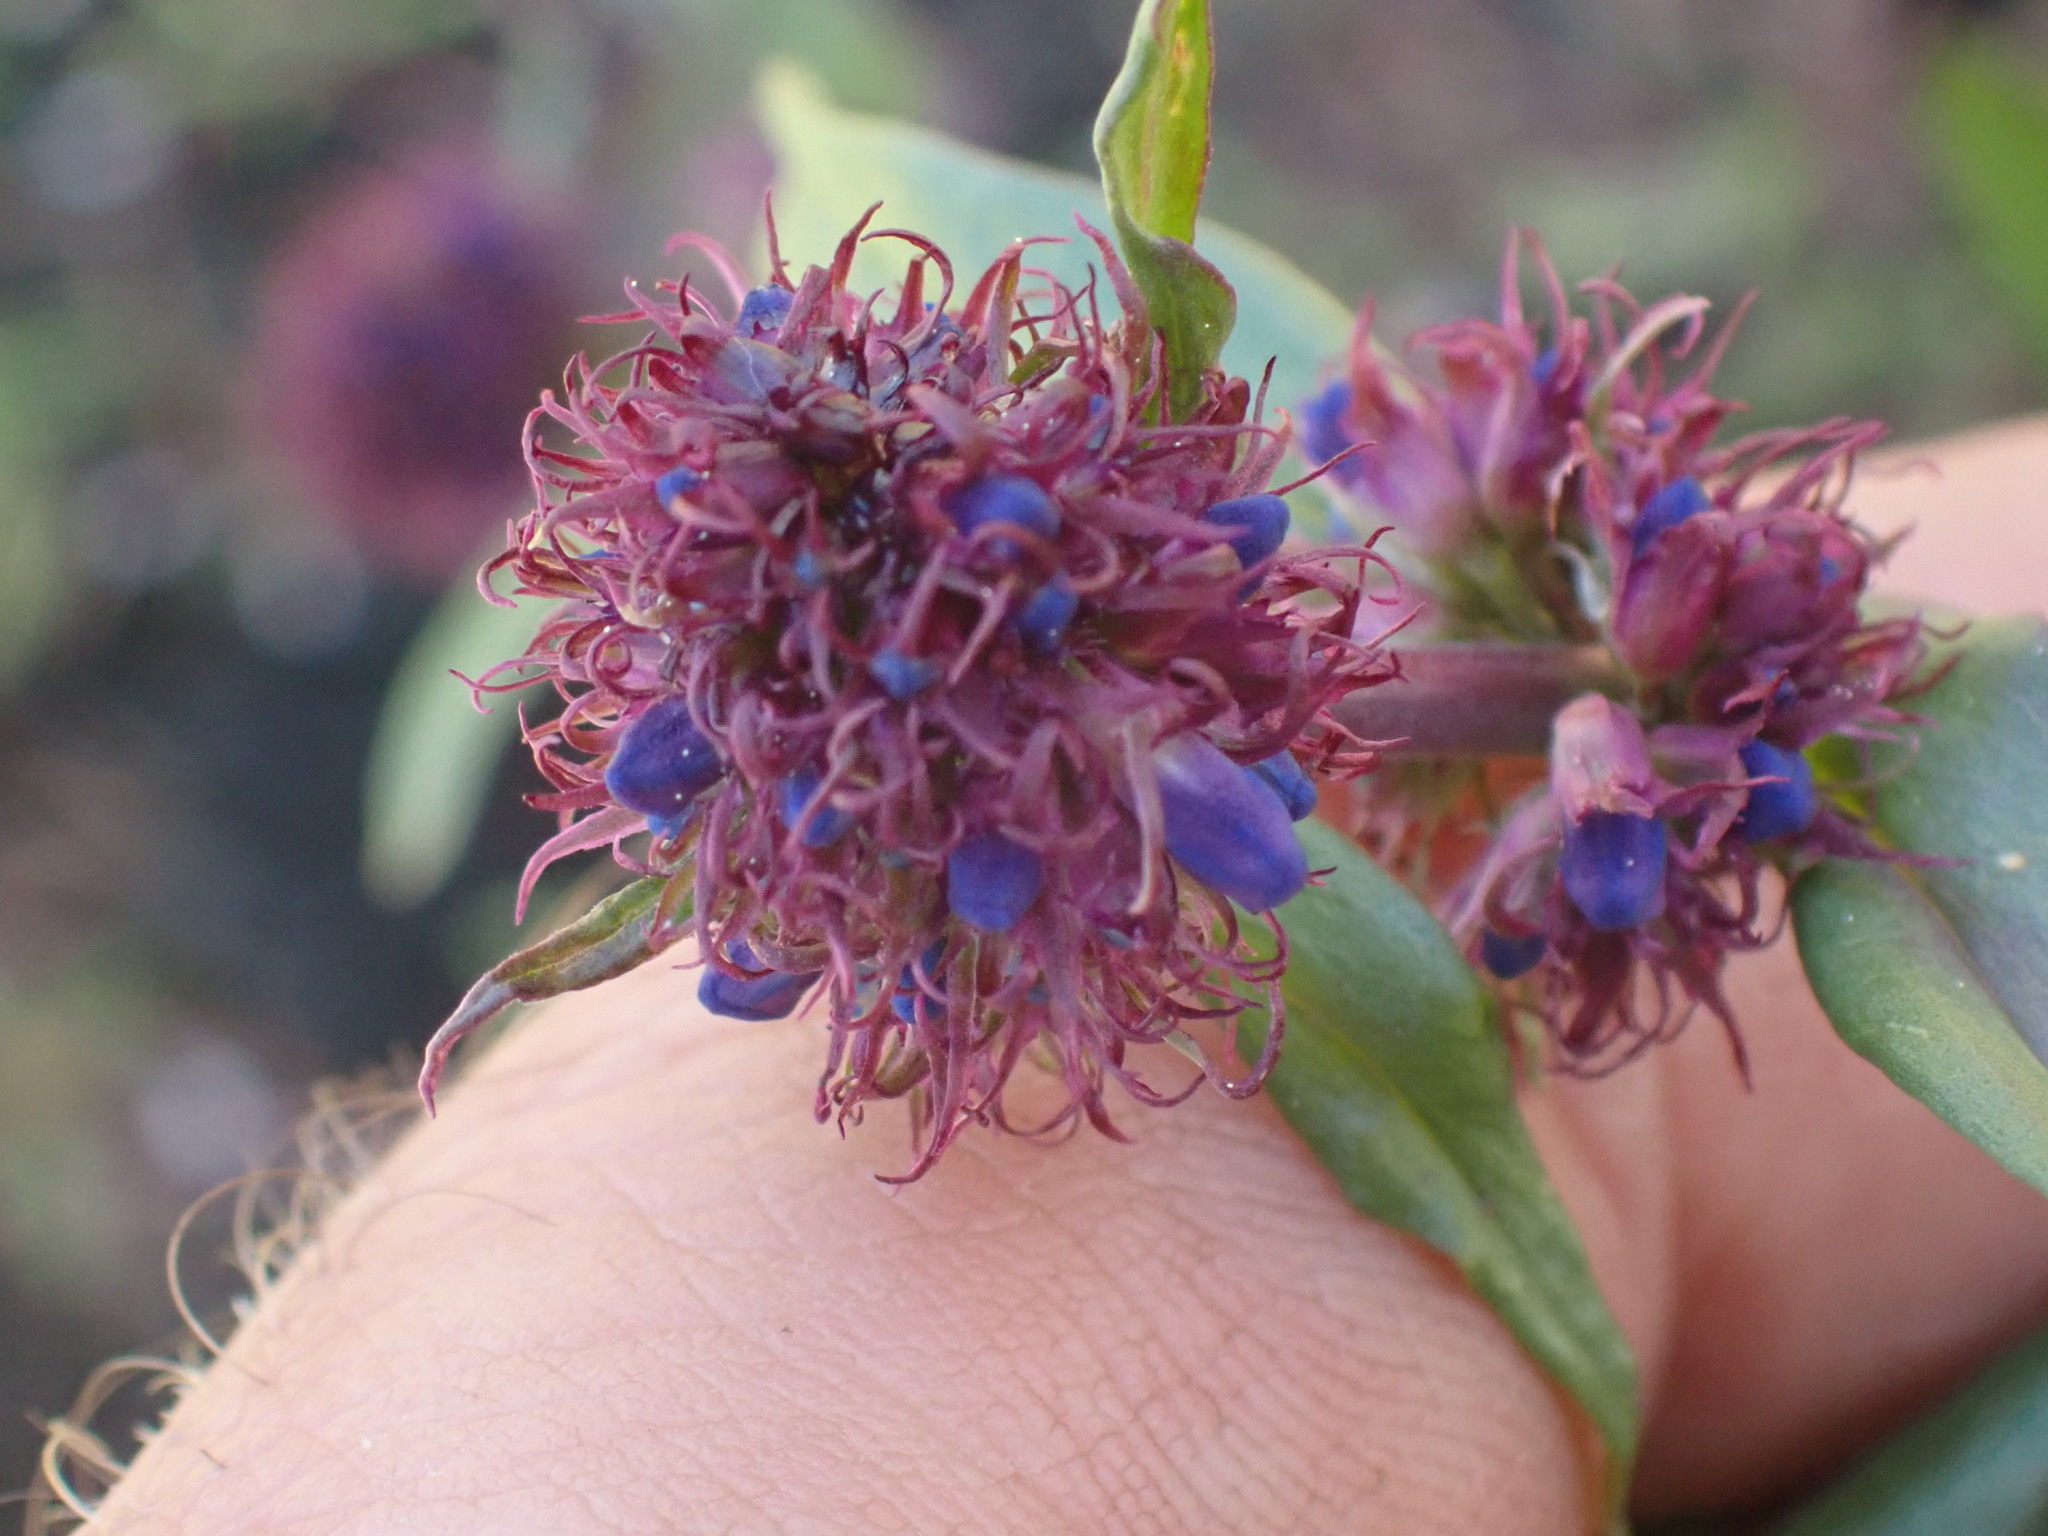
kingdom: Plantae
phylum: Tracheophyta
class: Magnoliopsida
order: Lamiales
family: Plantaginaceae
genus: Penstemon
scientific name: Penstemon procerus
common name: Small-flower penstemon
